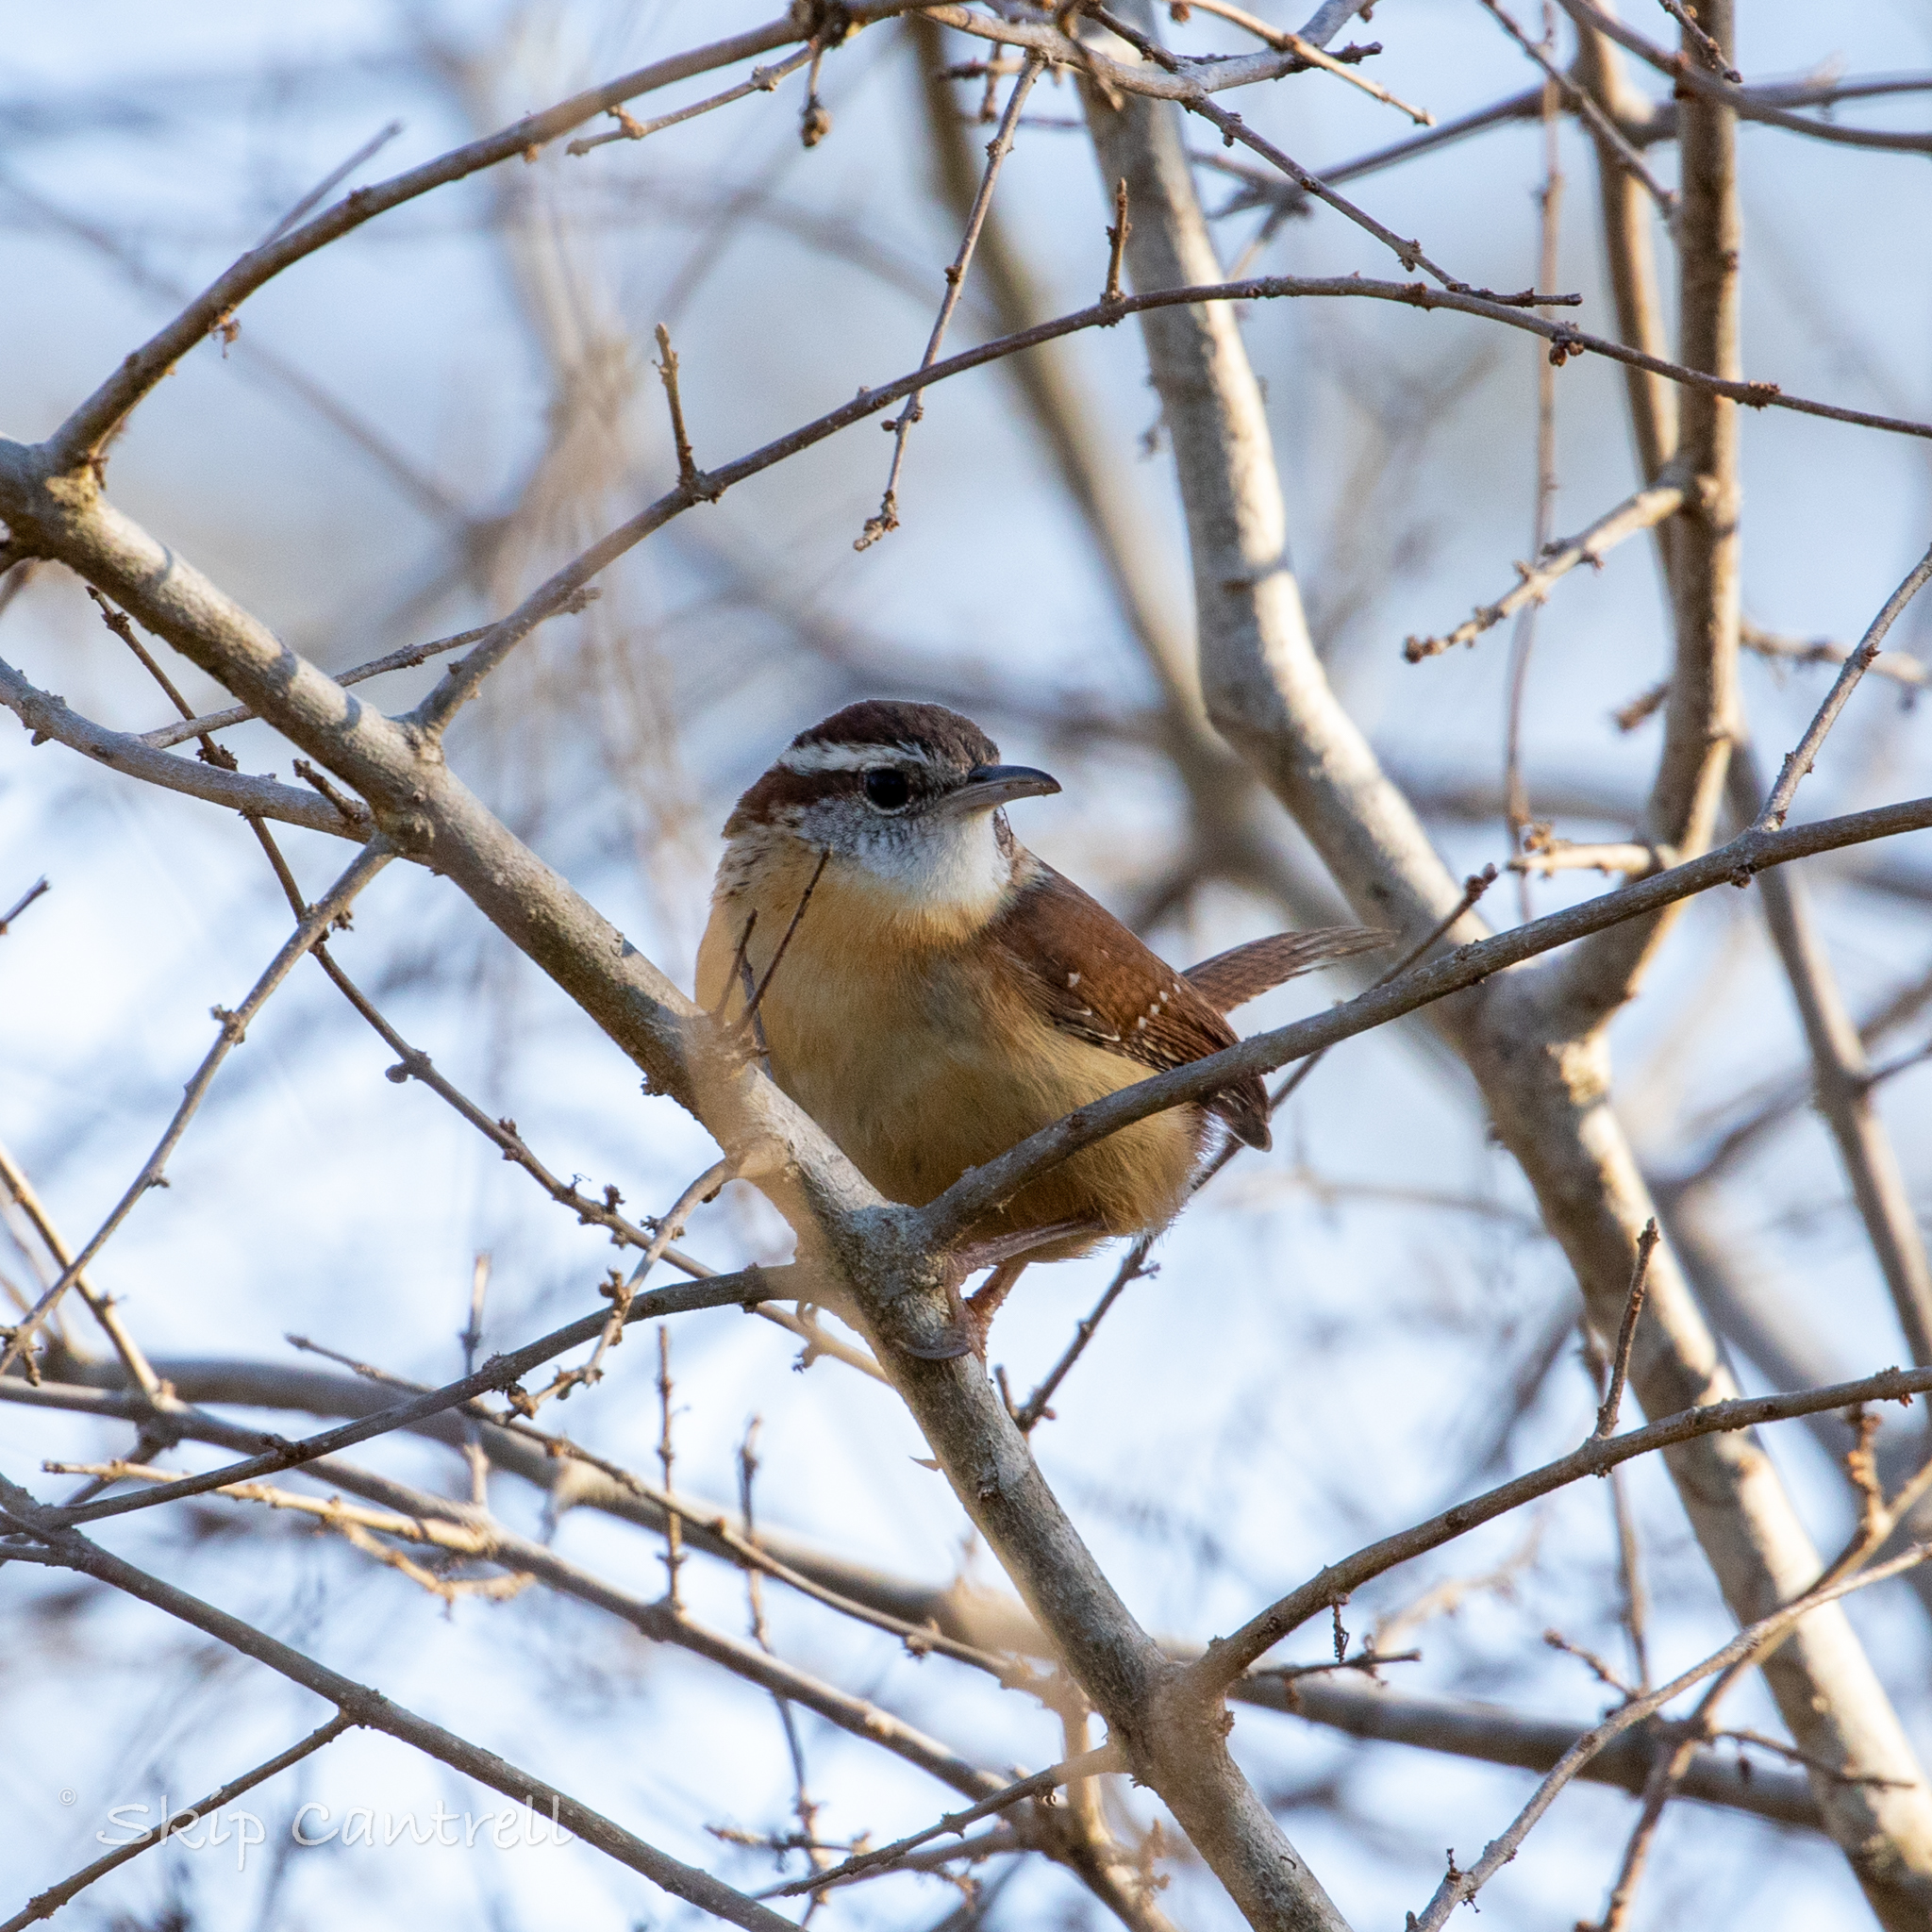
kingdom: Animalia
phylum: Chordata
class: Aves
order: Passeriformes
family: Troglodytidae
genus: Thryothorus
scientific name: Thryothorus ludovicianus
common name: Carolina wren
